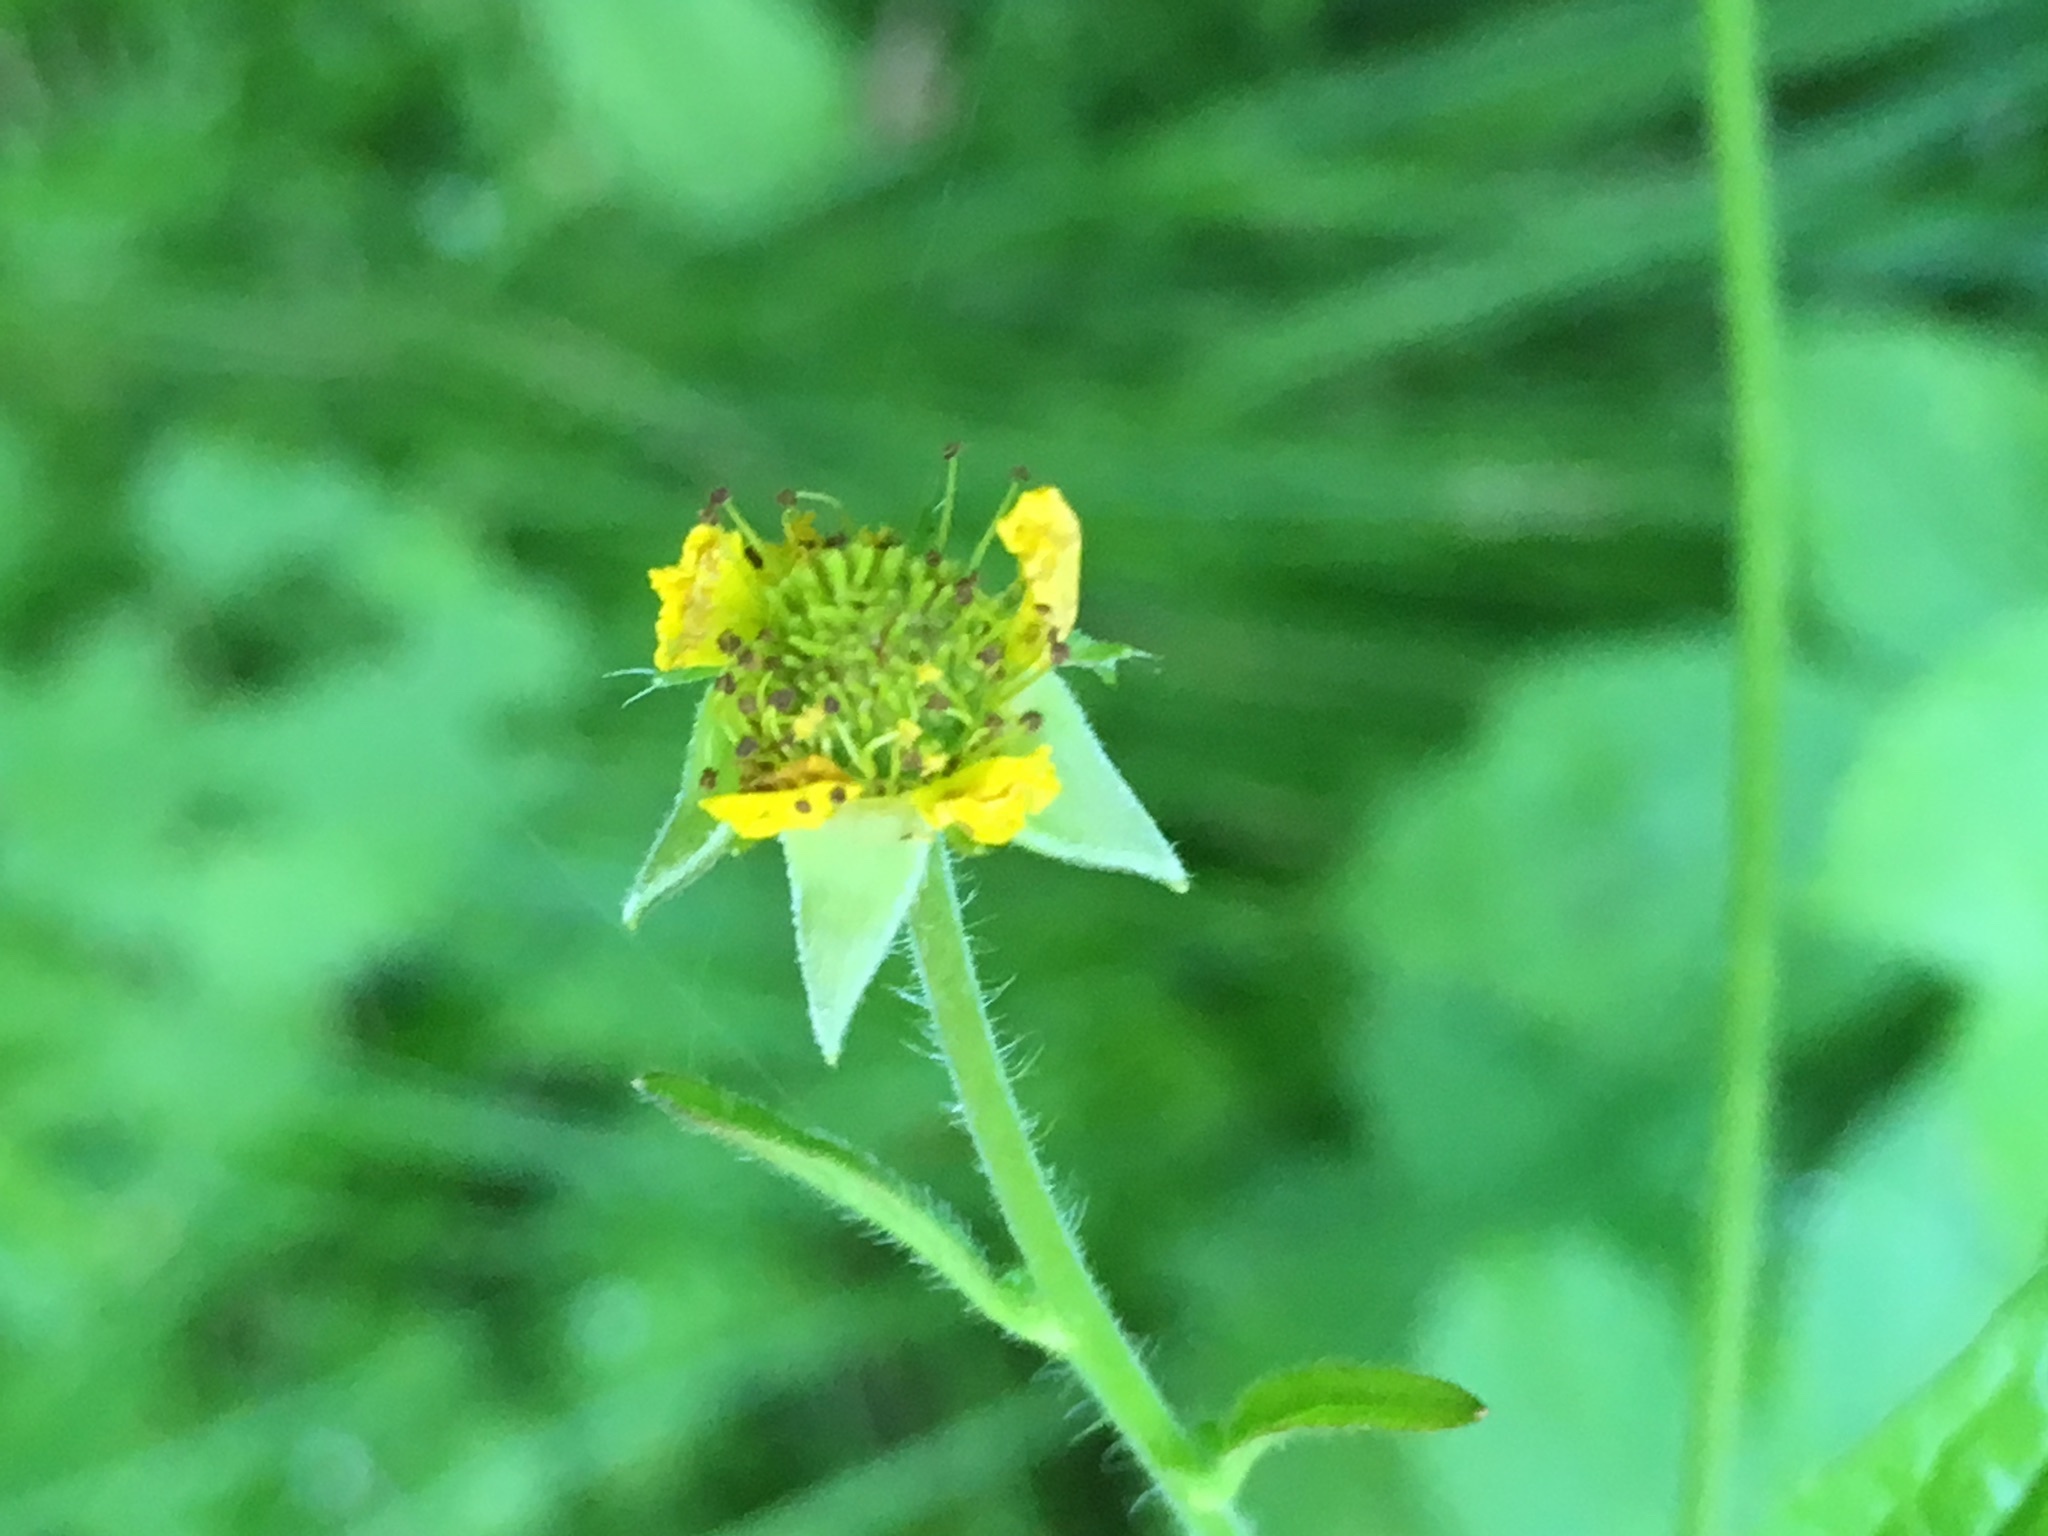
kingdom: Plantae
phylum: Tracheophyta
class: Magnoliopsida
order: Rosales
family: Rosaceae
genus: Geum
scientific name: Geum urbanum
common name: Wood avens
